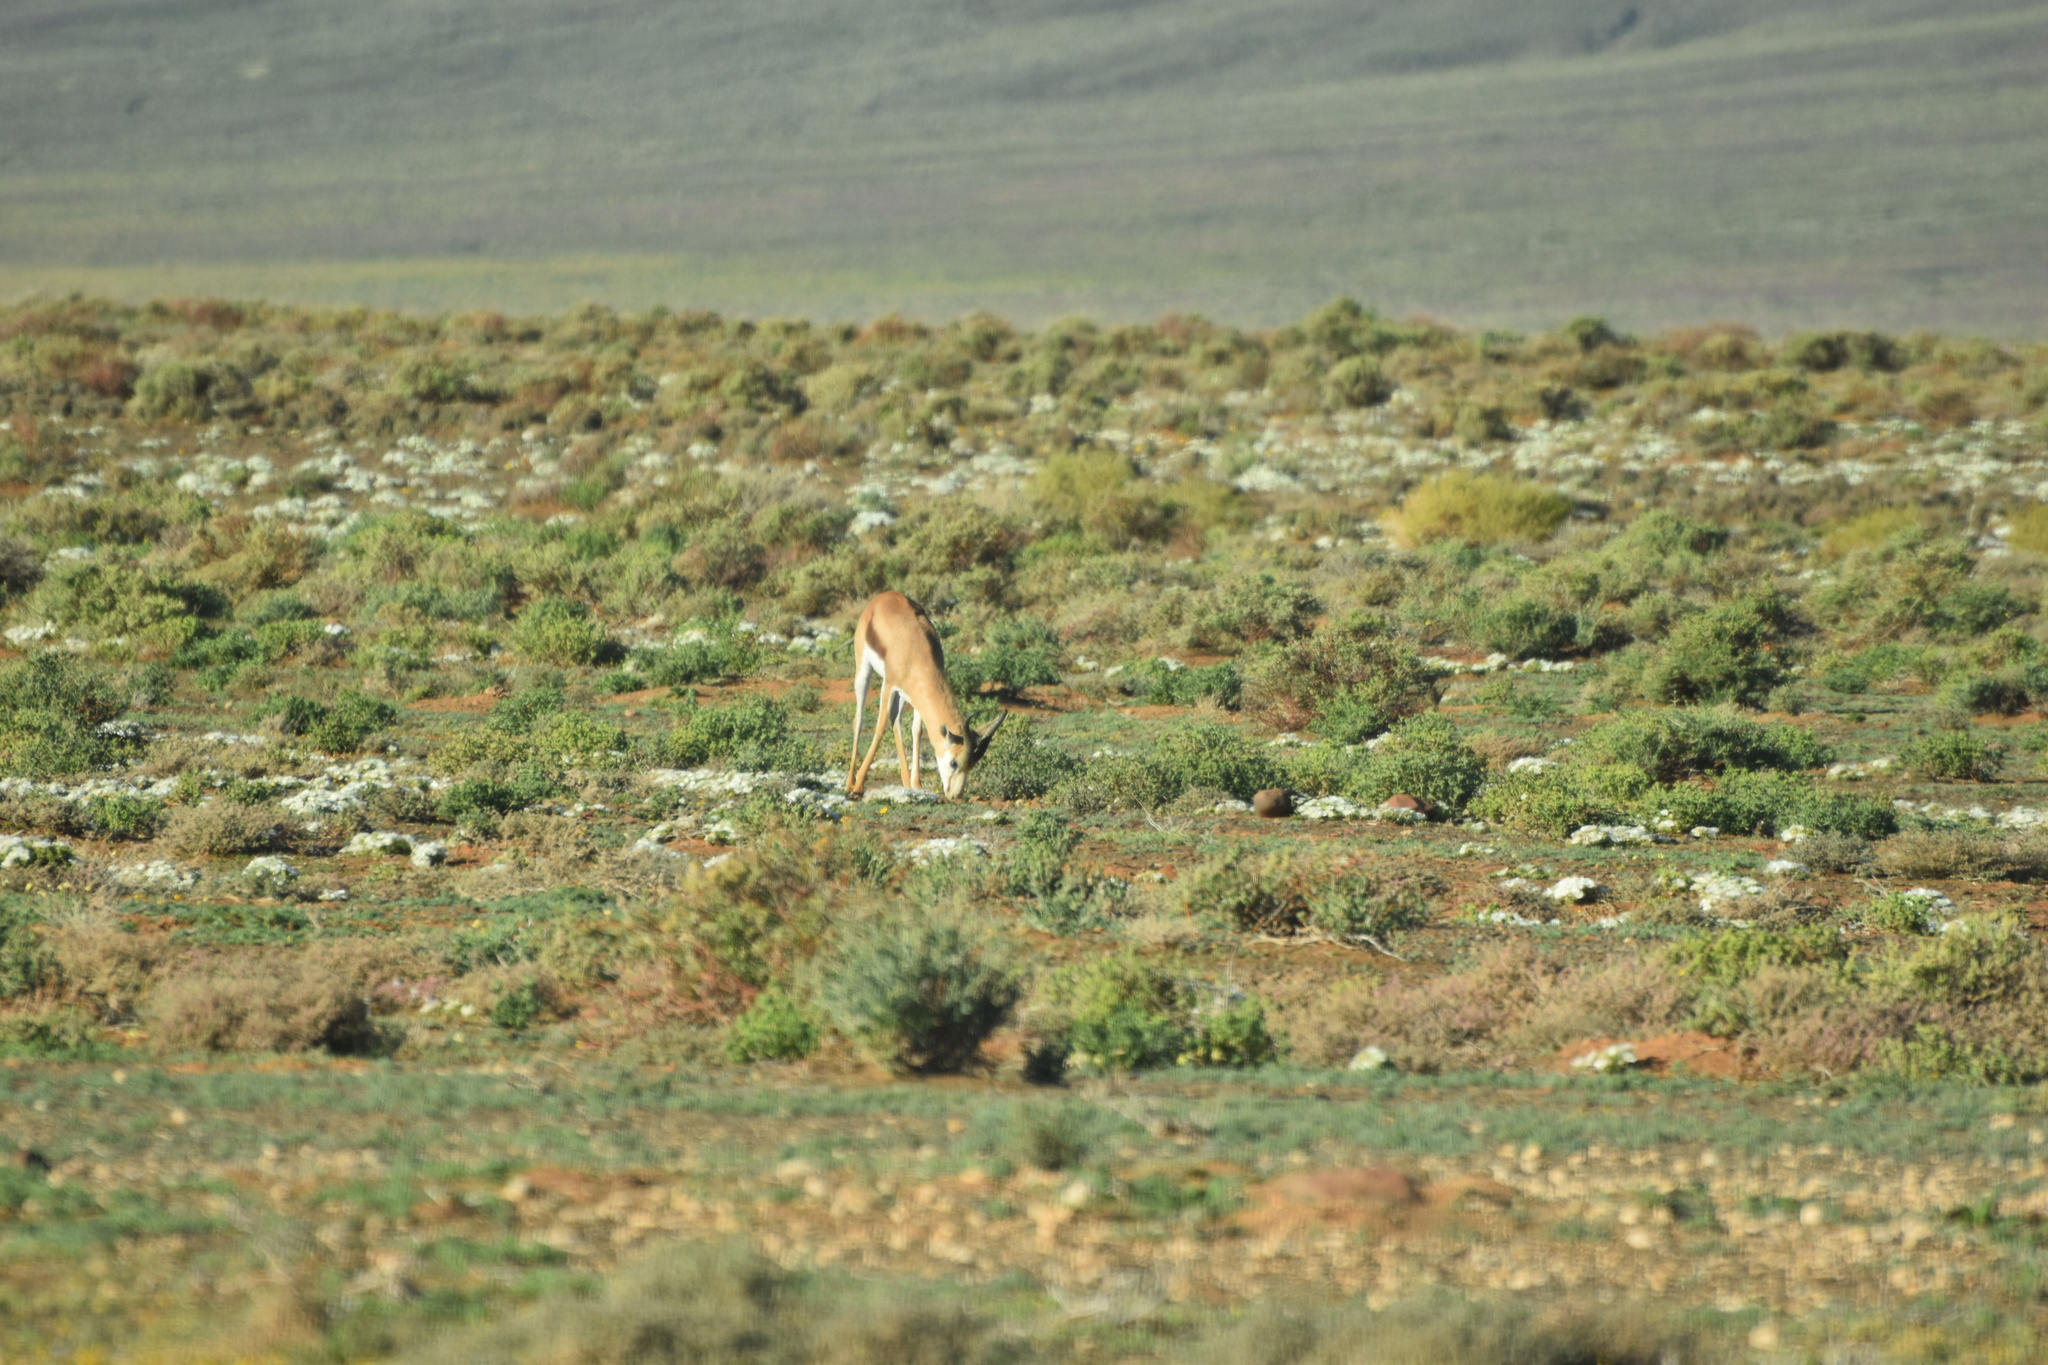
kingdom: Animalia
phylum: Chordata
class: Mammalia
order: Artiodactyla
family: Bovidae
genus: Antidorcas
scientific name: Antidorcas marsupialis
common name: Springbok
